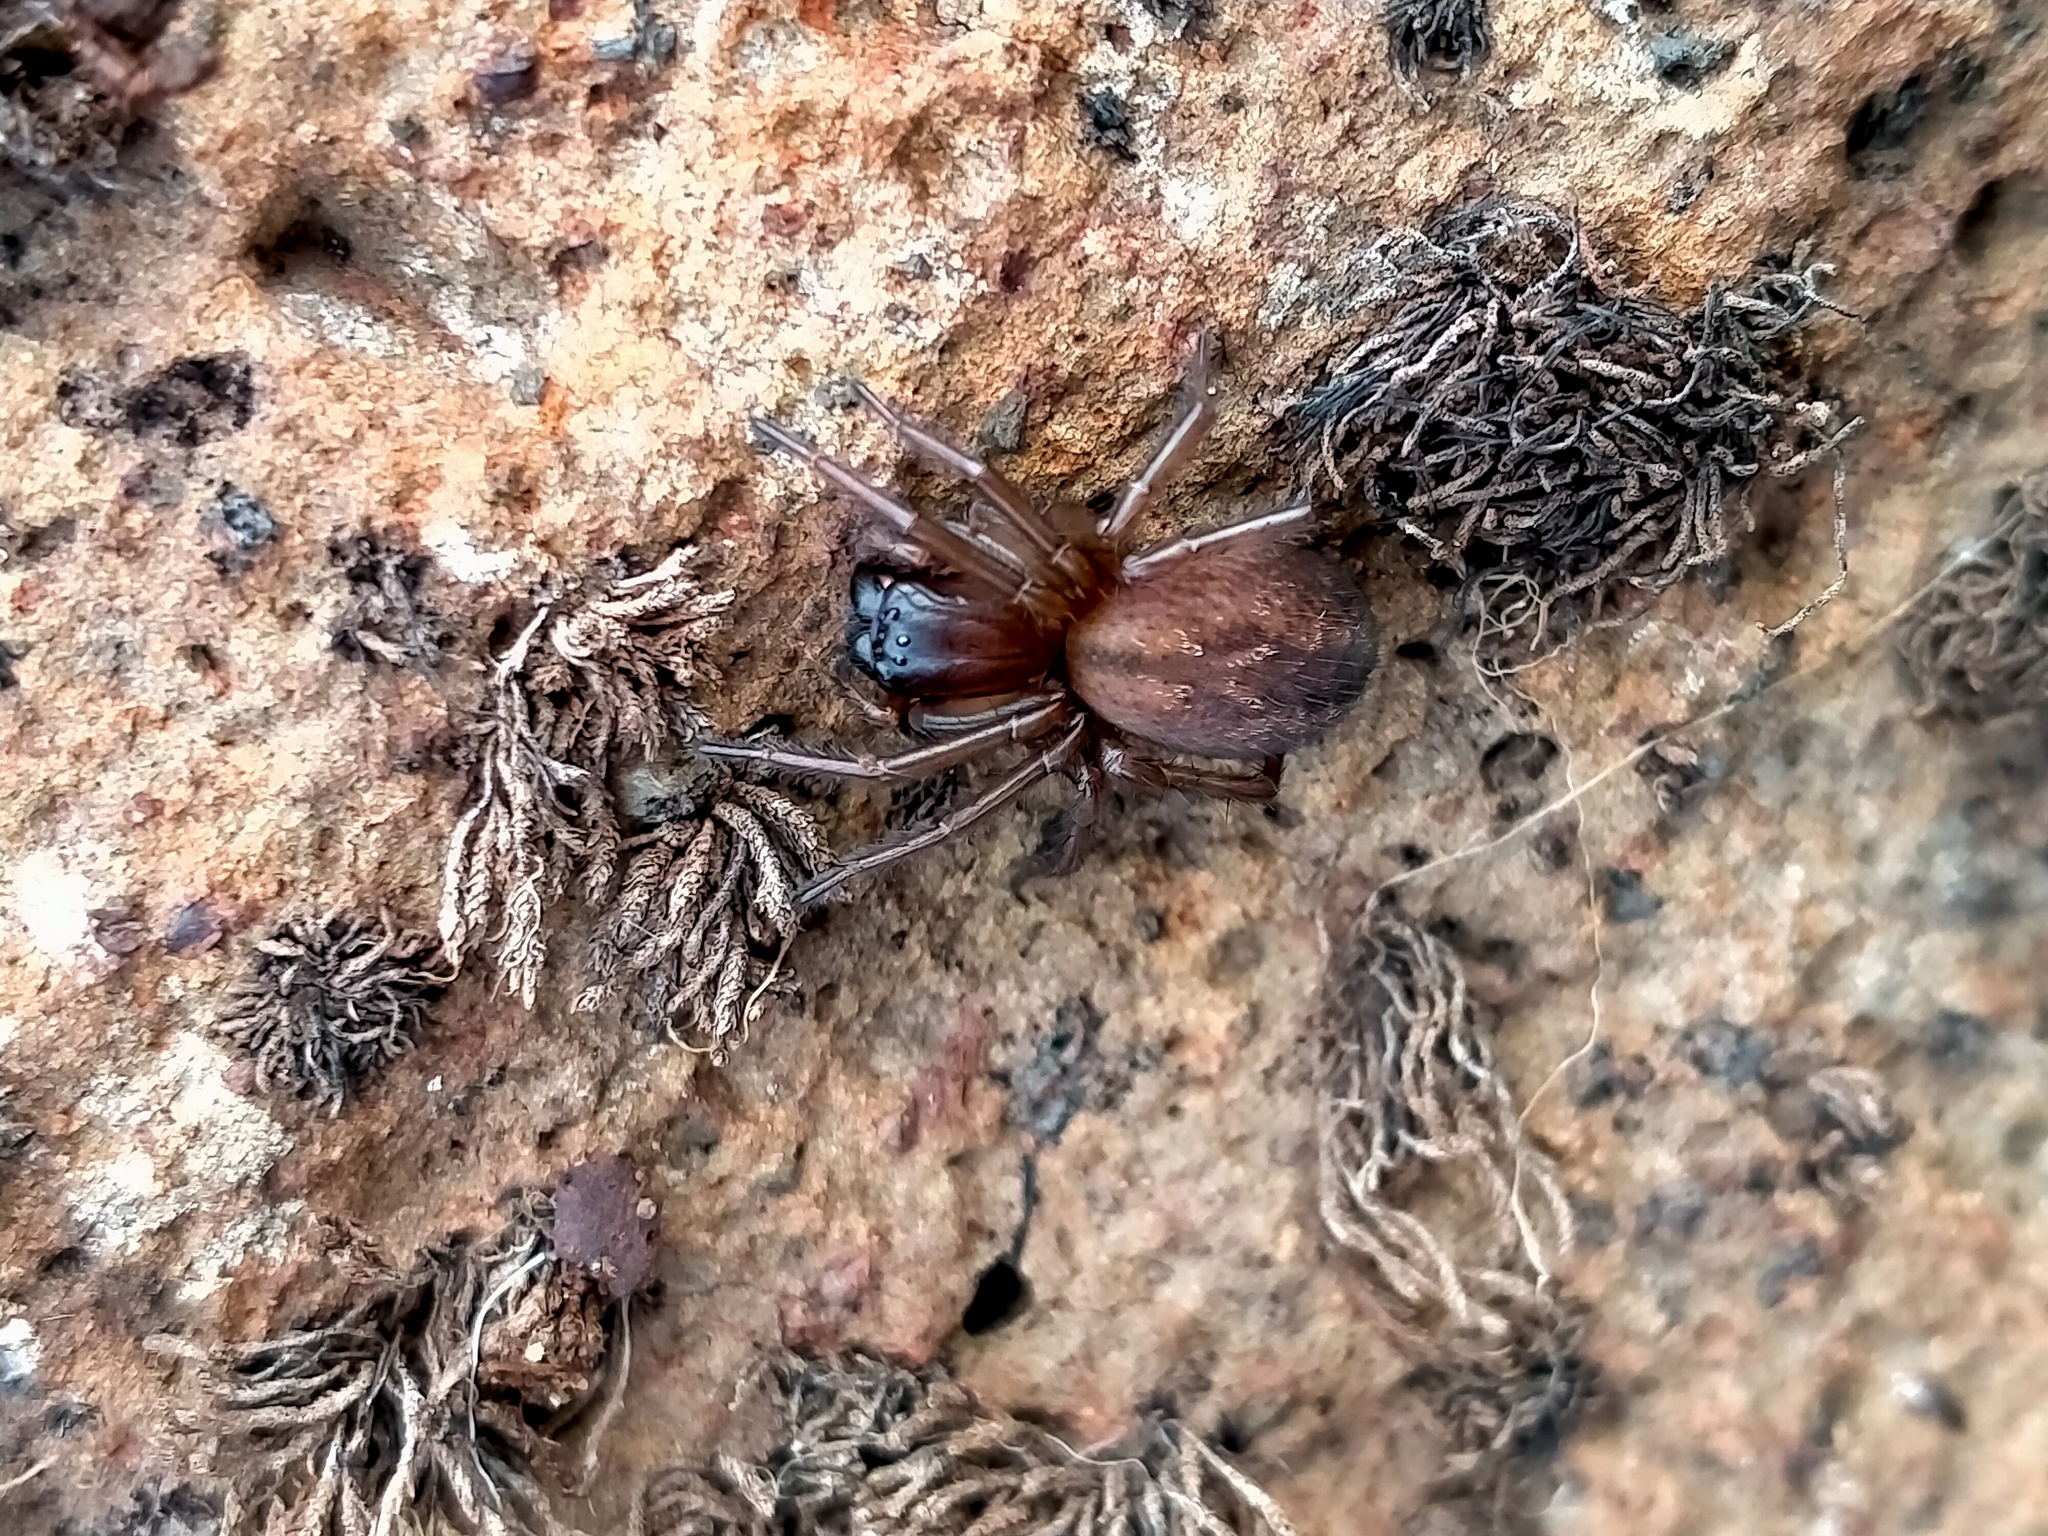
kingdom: Animalia
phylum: Arthropoda
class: Arachnida
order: Araneae
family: Stiphidiidae
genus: Neoramia
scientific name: Neoramia crucifera
